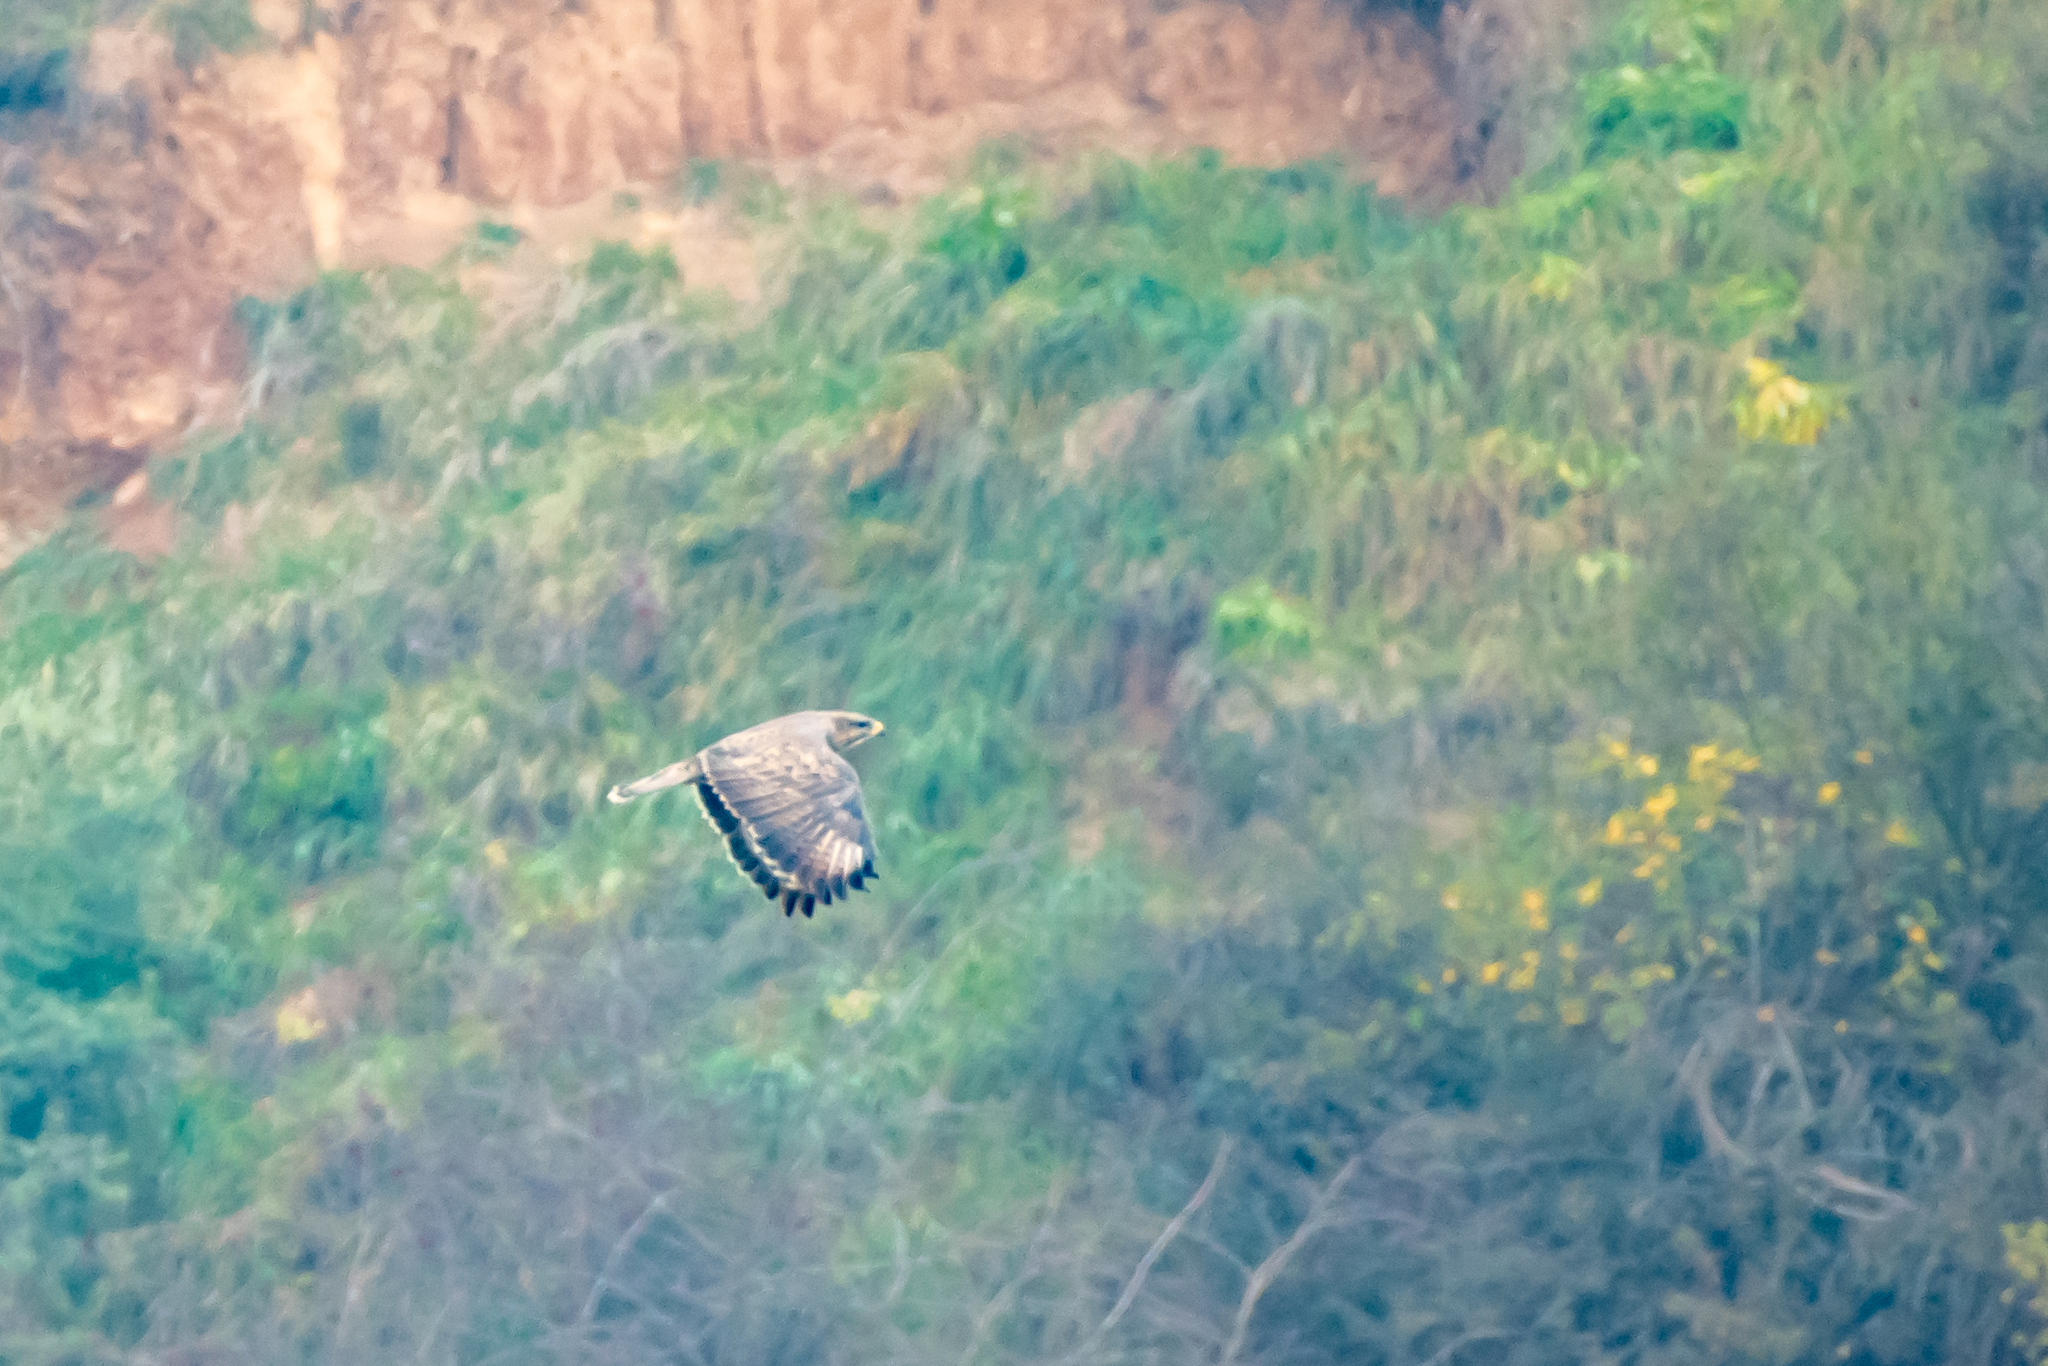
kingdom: Animalia
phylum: Chordata
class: Aves
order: Accipitriformes
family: Accipitridae
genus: Buteo
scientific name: Buteo buteo
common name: Common buzzard
